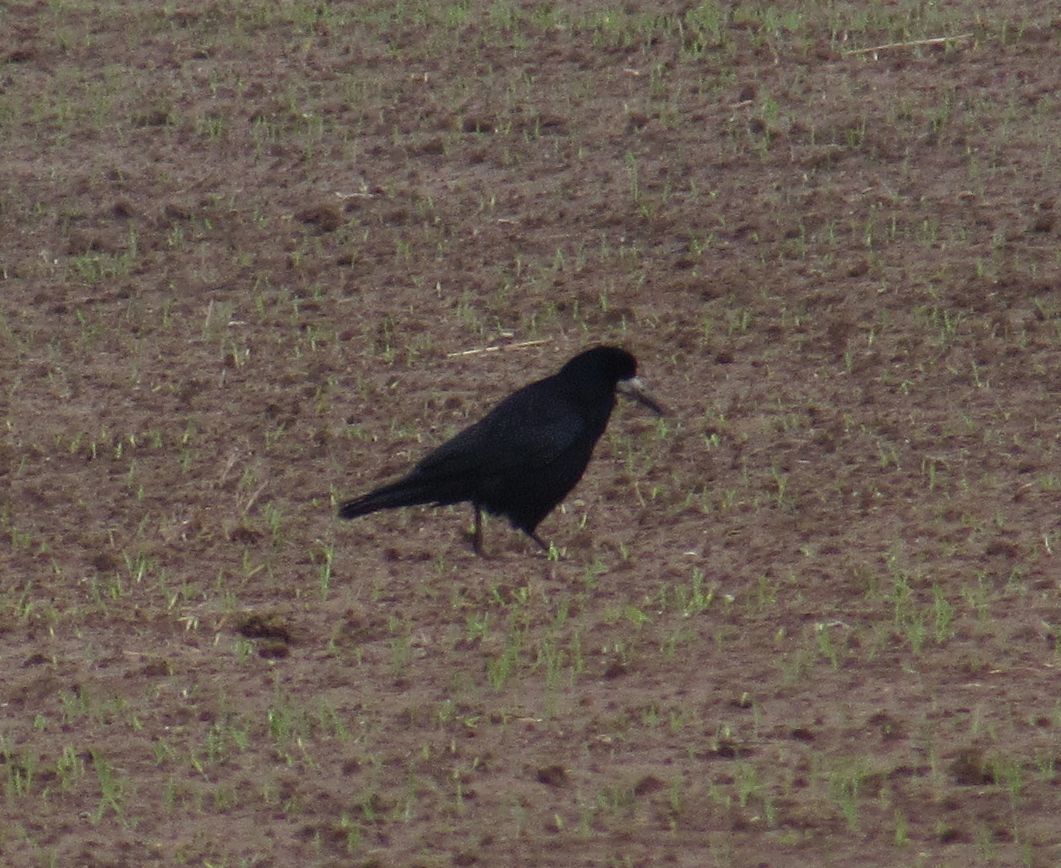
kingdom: Animalia
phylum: Chordata
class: Aves
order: Passeriformes
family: Corvidae
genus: Corvus
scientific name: Corvus frugilegus
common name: Rook
